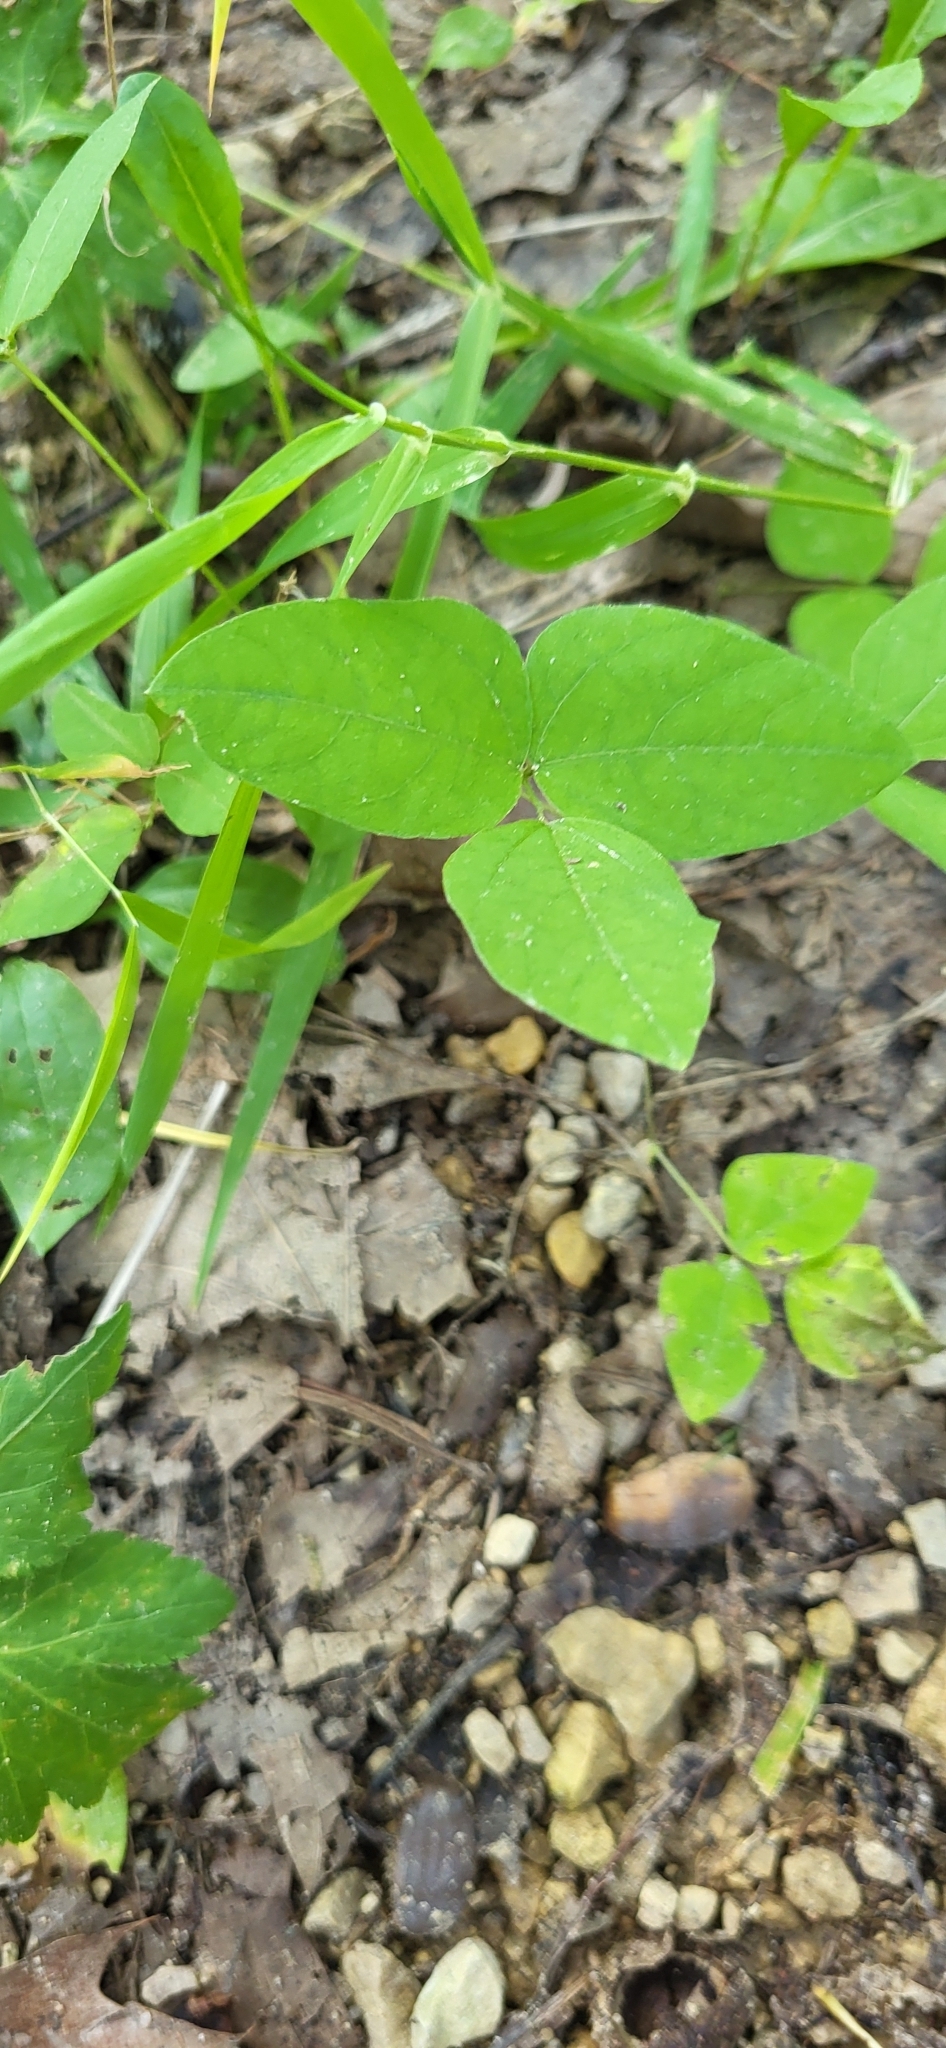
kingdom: Plantae
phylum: Tracheophyta
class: Magnoliopsida
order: Fabales
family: Fabaceae
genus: Amphicarpaea
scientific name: Amphicarpaea bracteata
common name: American hog peanut
